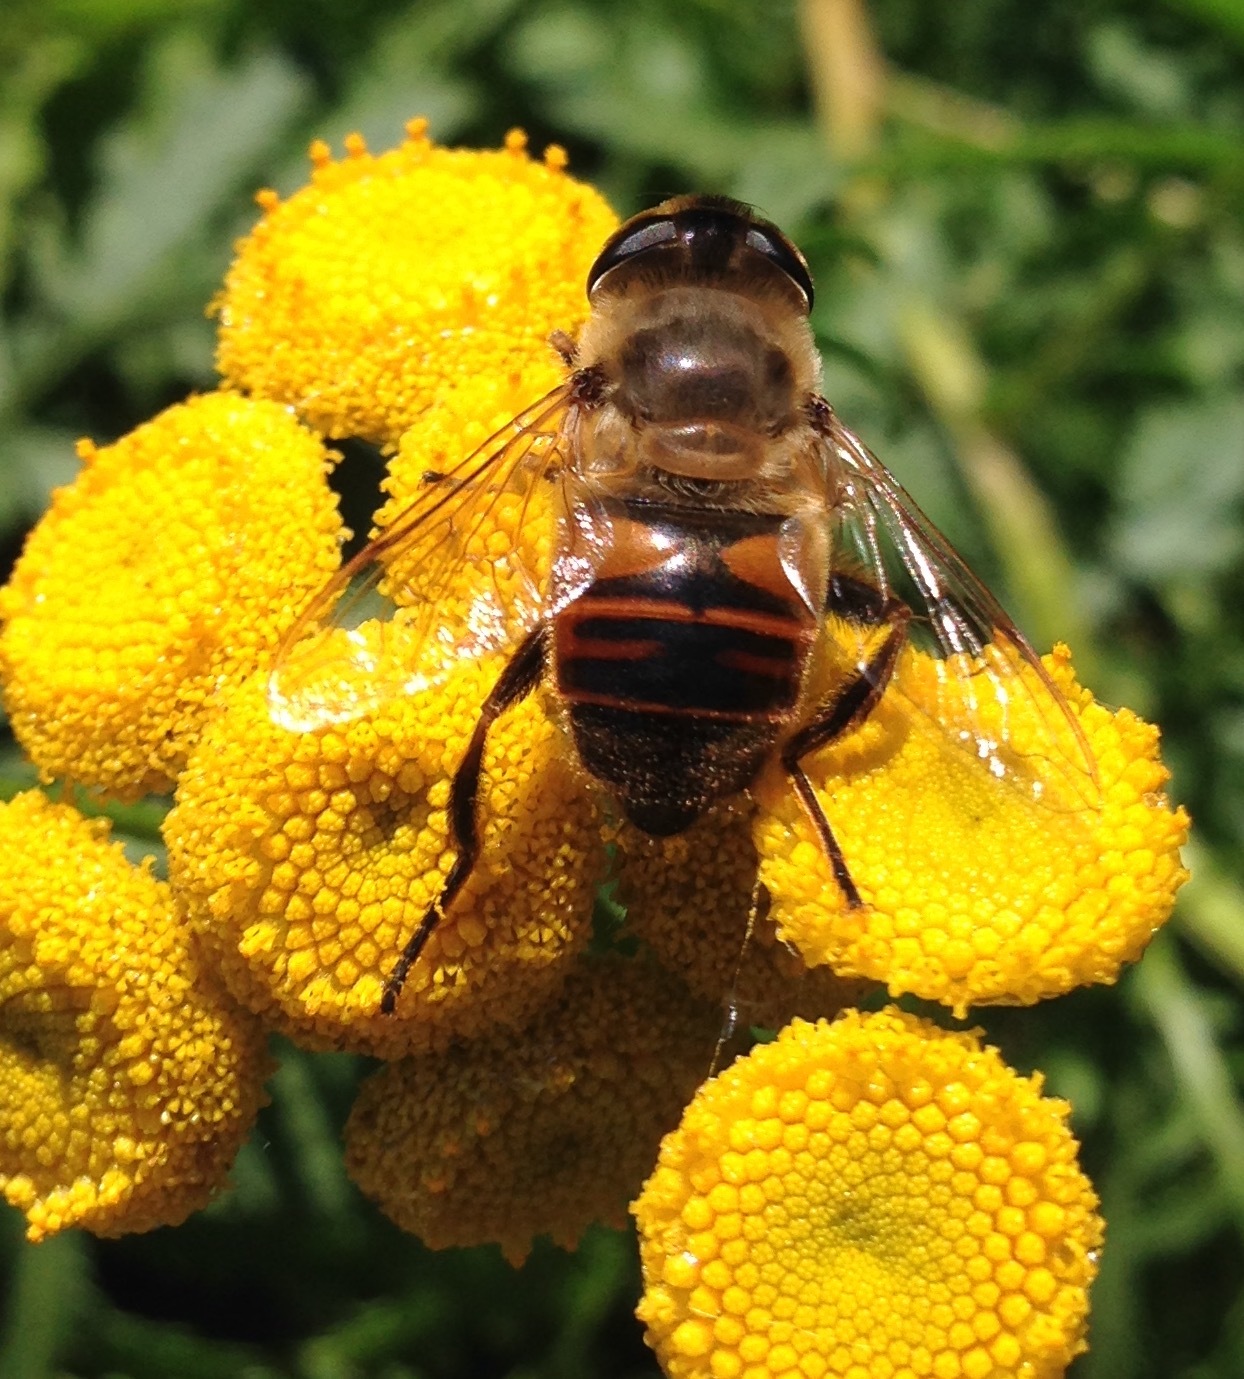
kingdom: Animalia
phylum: Arthropoda
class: Insecta
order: Diptera
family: Syrphidae
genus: Eristalis
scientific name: Eristalis tenax
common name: Drone fly
